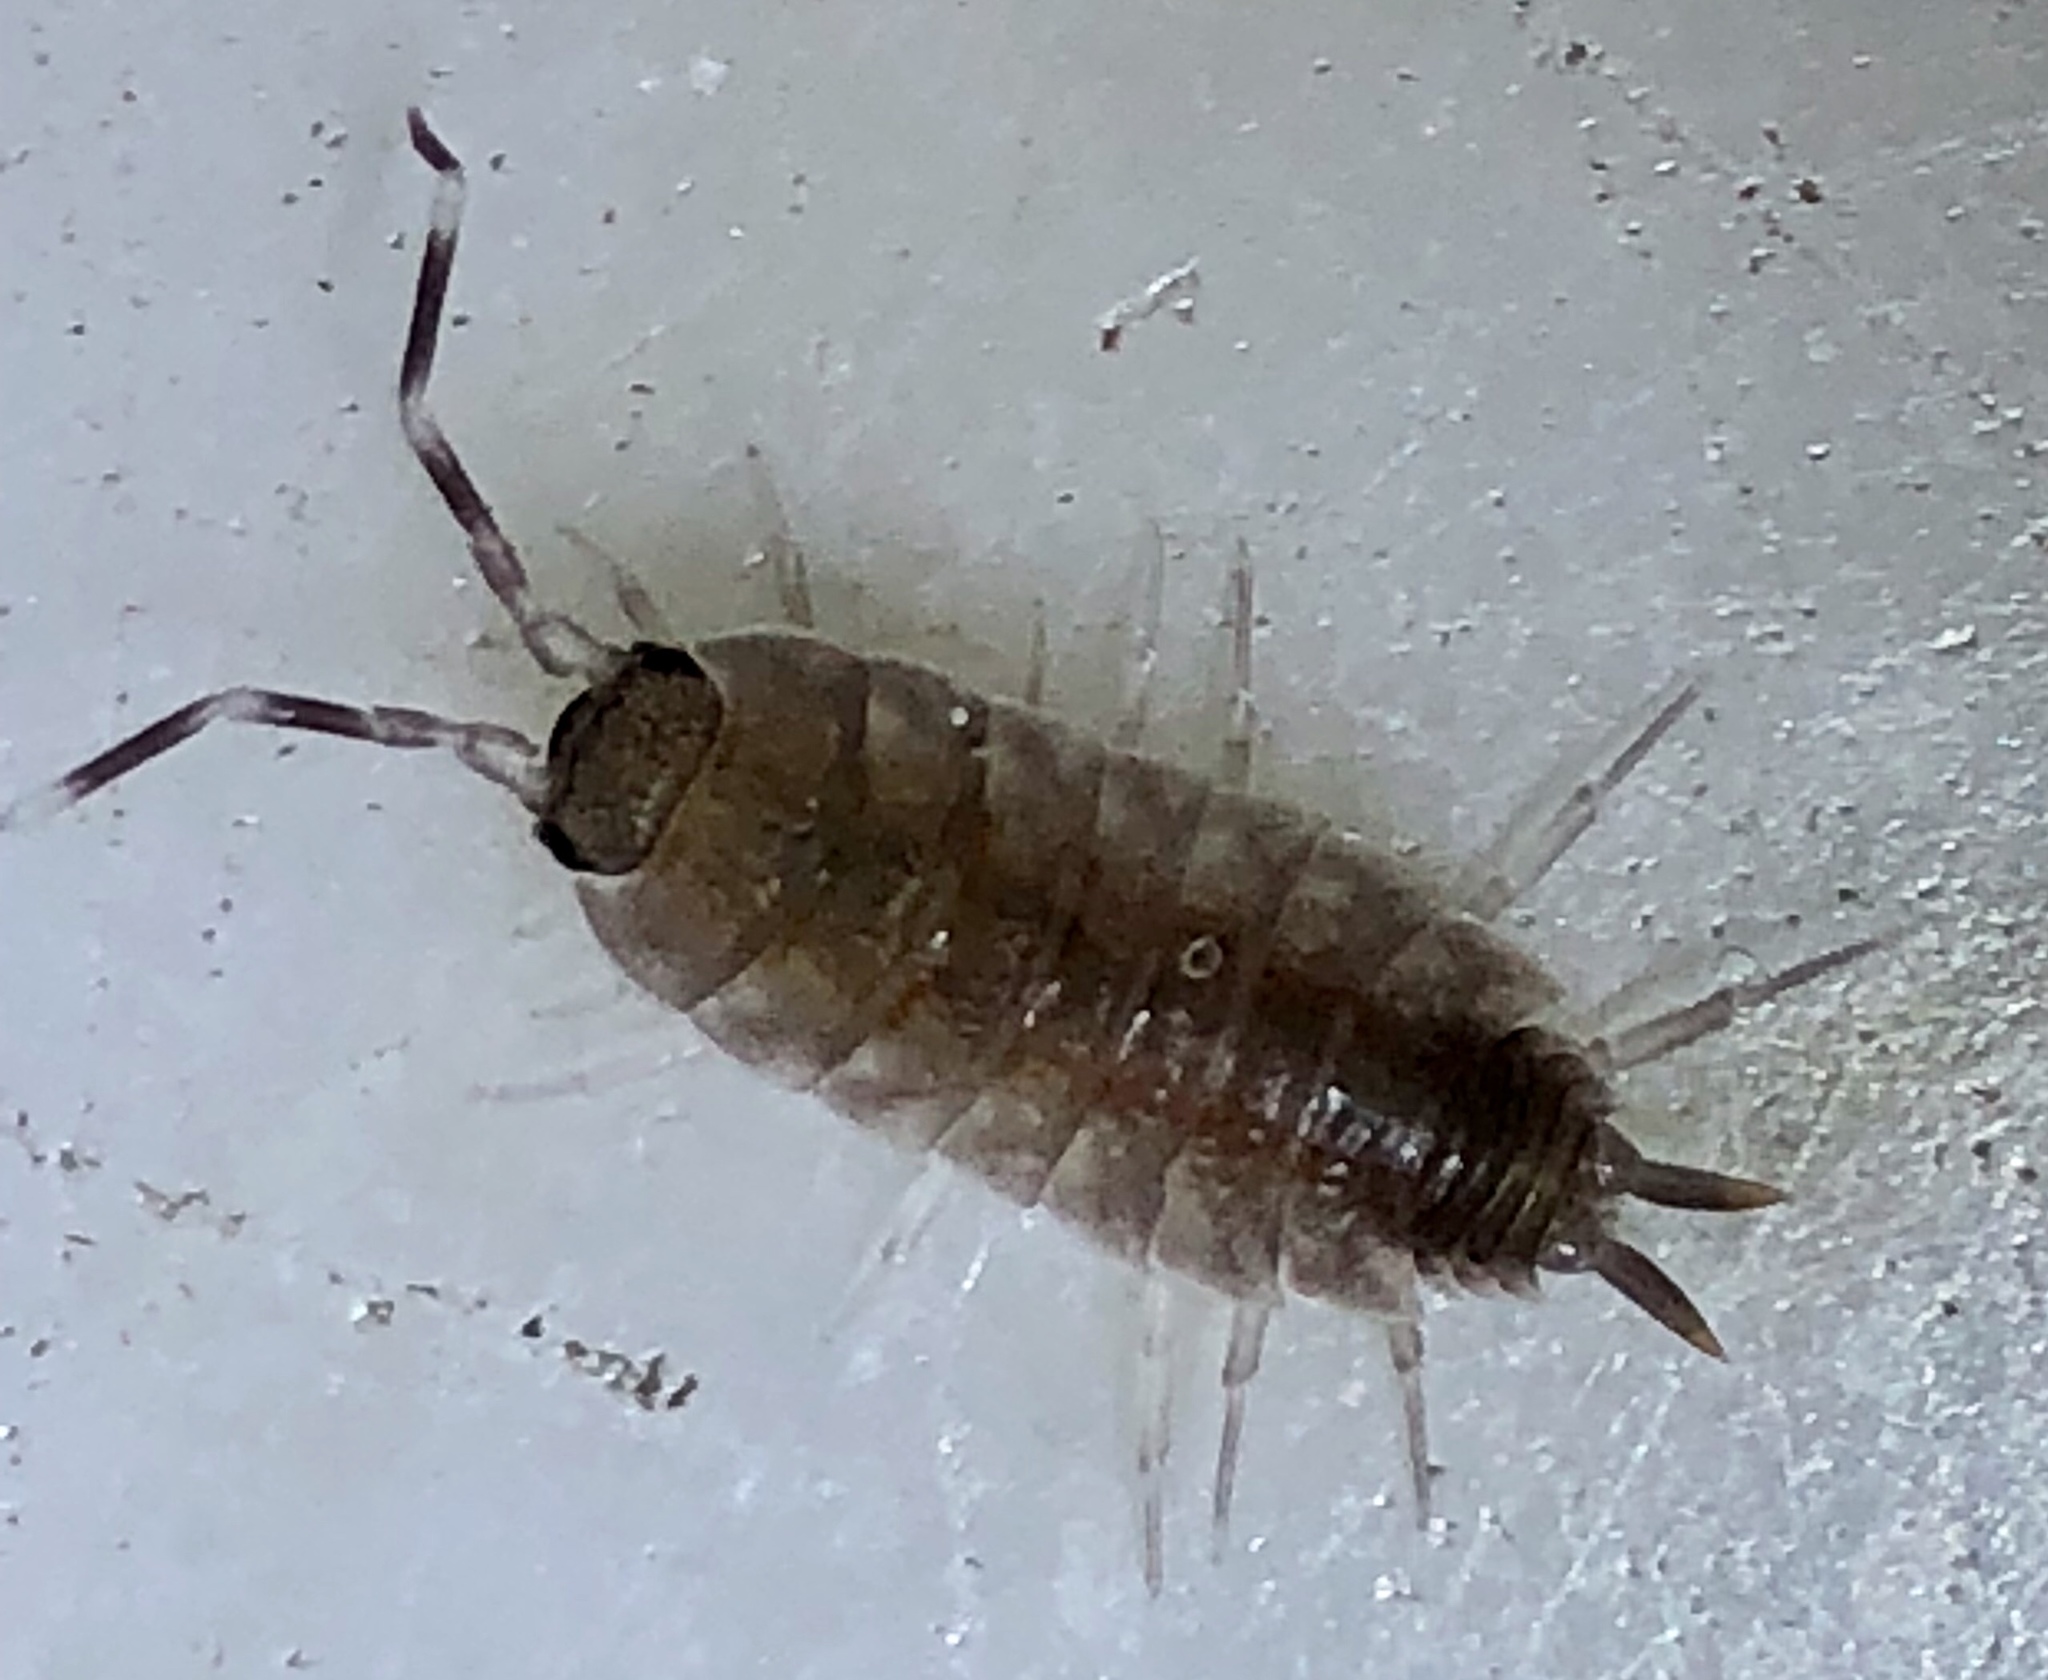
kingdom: Animalia
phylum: Arthropoda
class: Malacostraca
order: Isopoda
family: Porcellionidae
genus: Porcellionides
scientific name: Porcellionides
